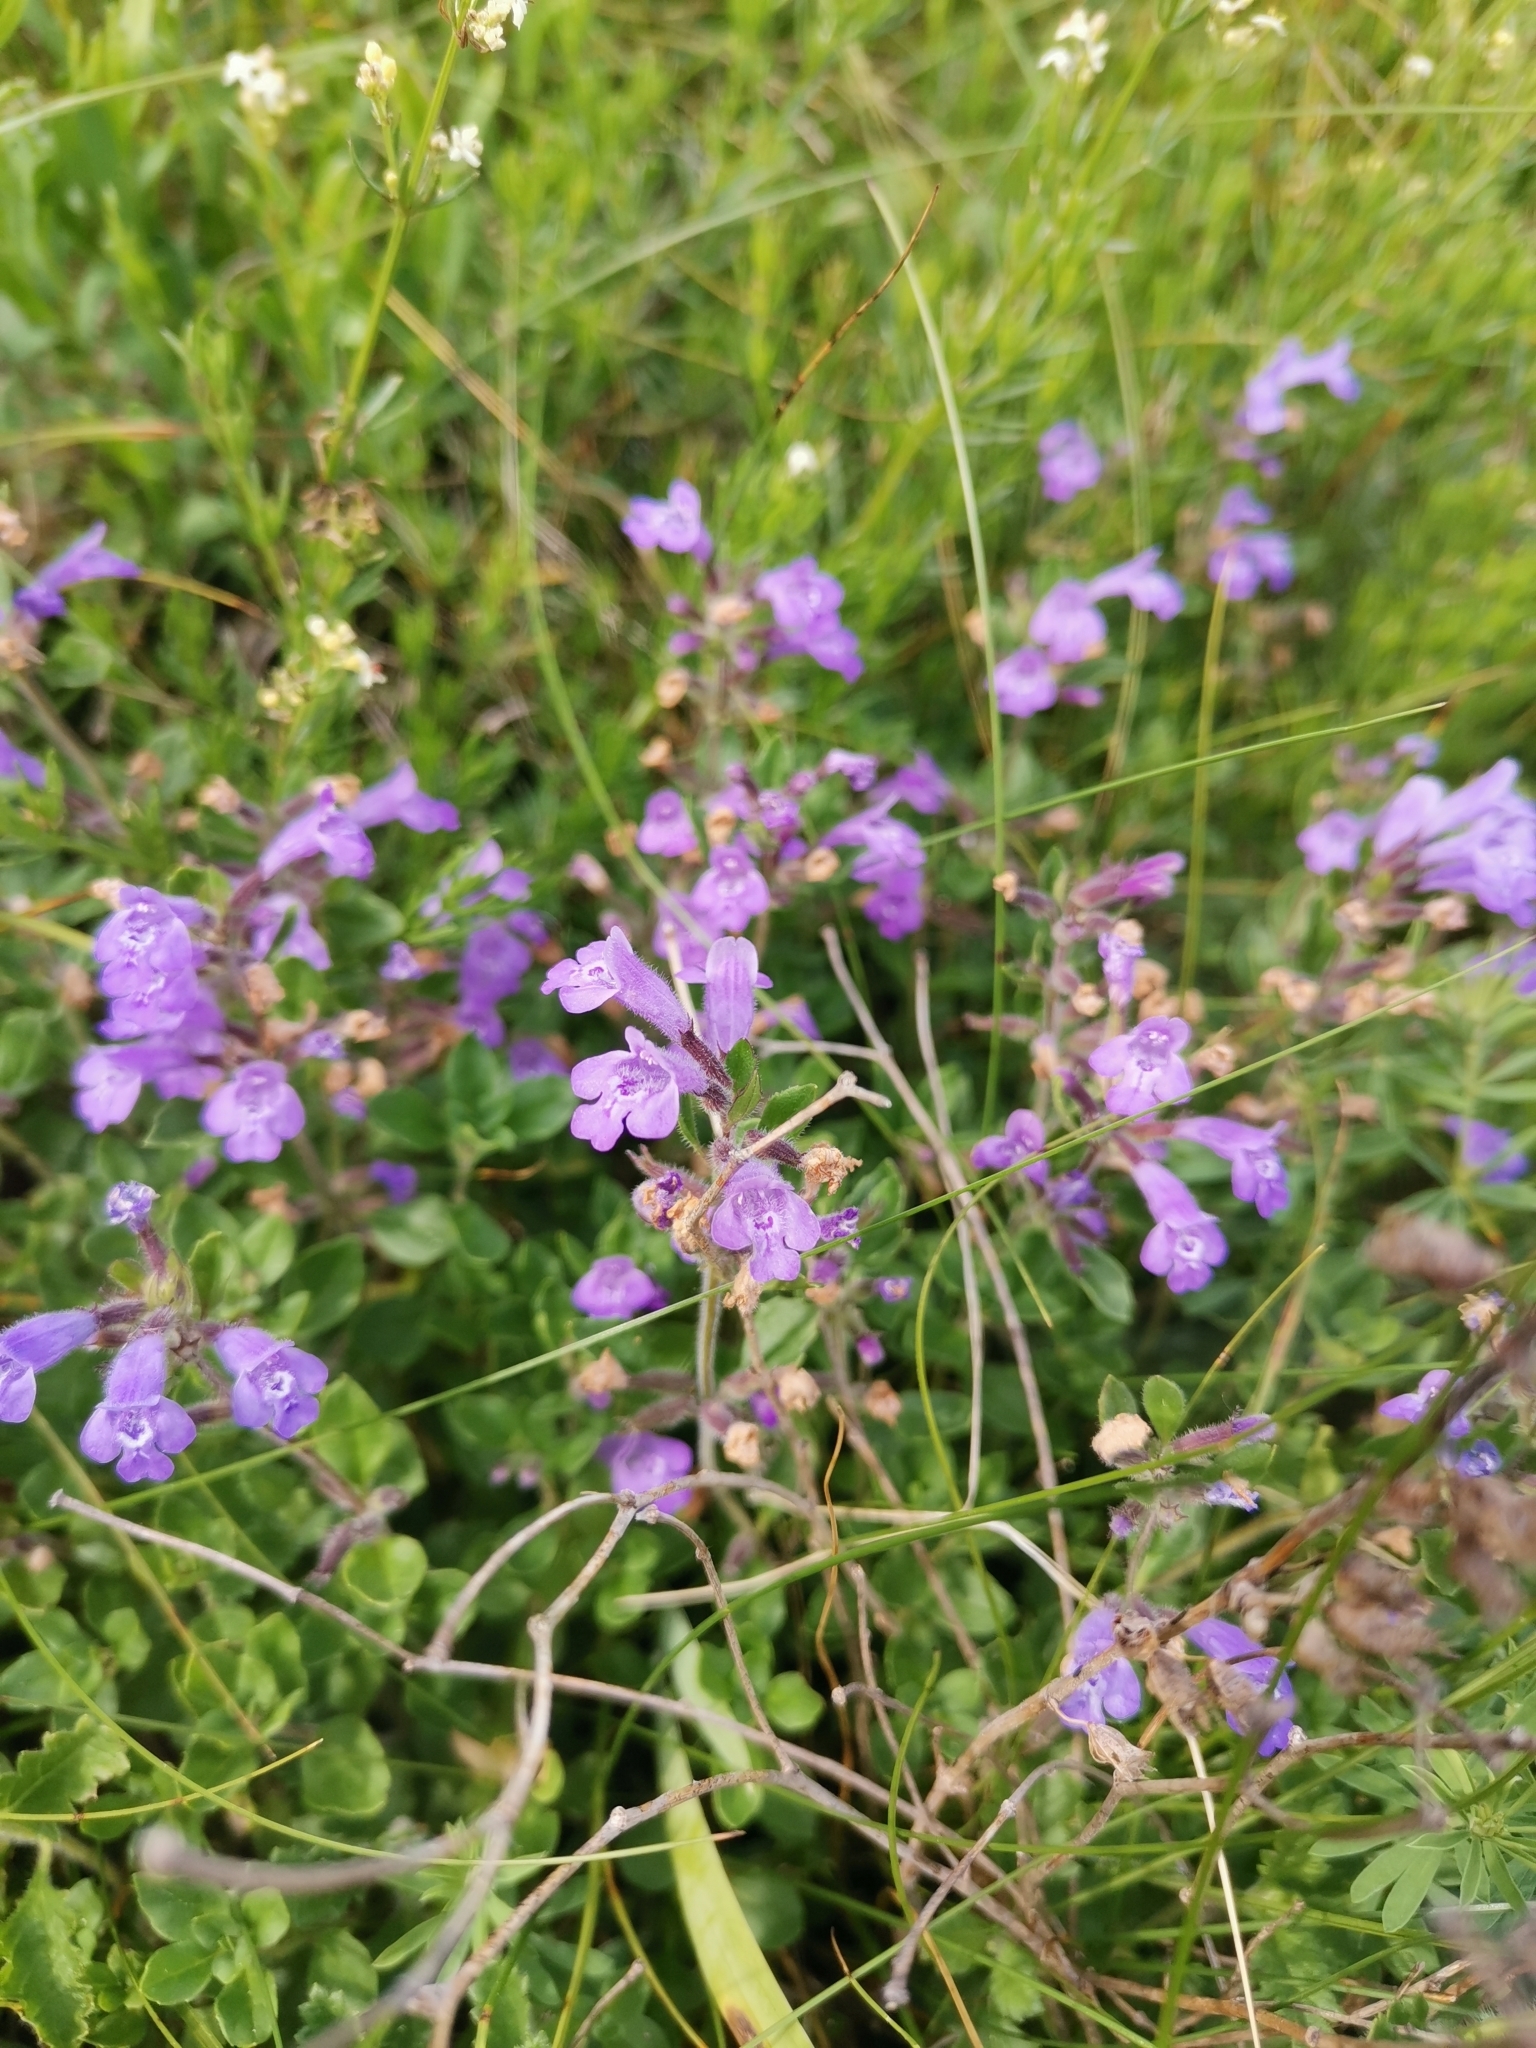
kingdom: Plantae
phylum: Tracheophyta
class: Magnoliopsida
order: Lamiales
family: Lamiaceae
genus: Clinopodium
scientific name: Clinopodium alpinum
